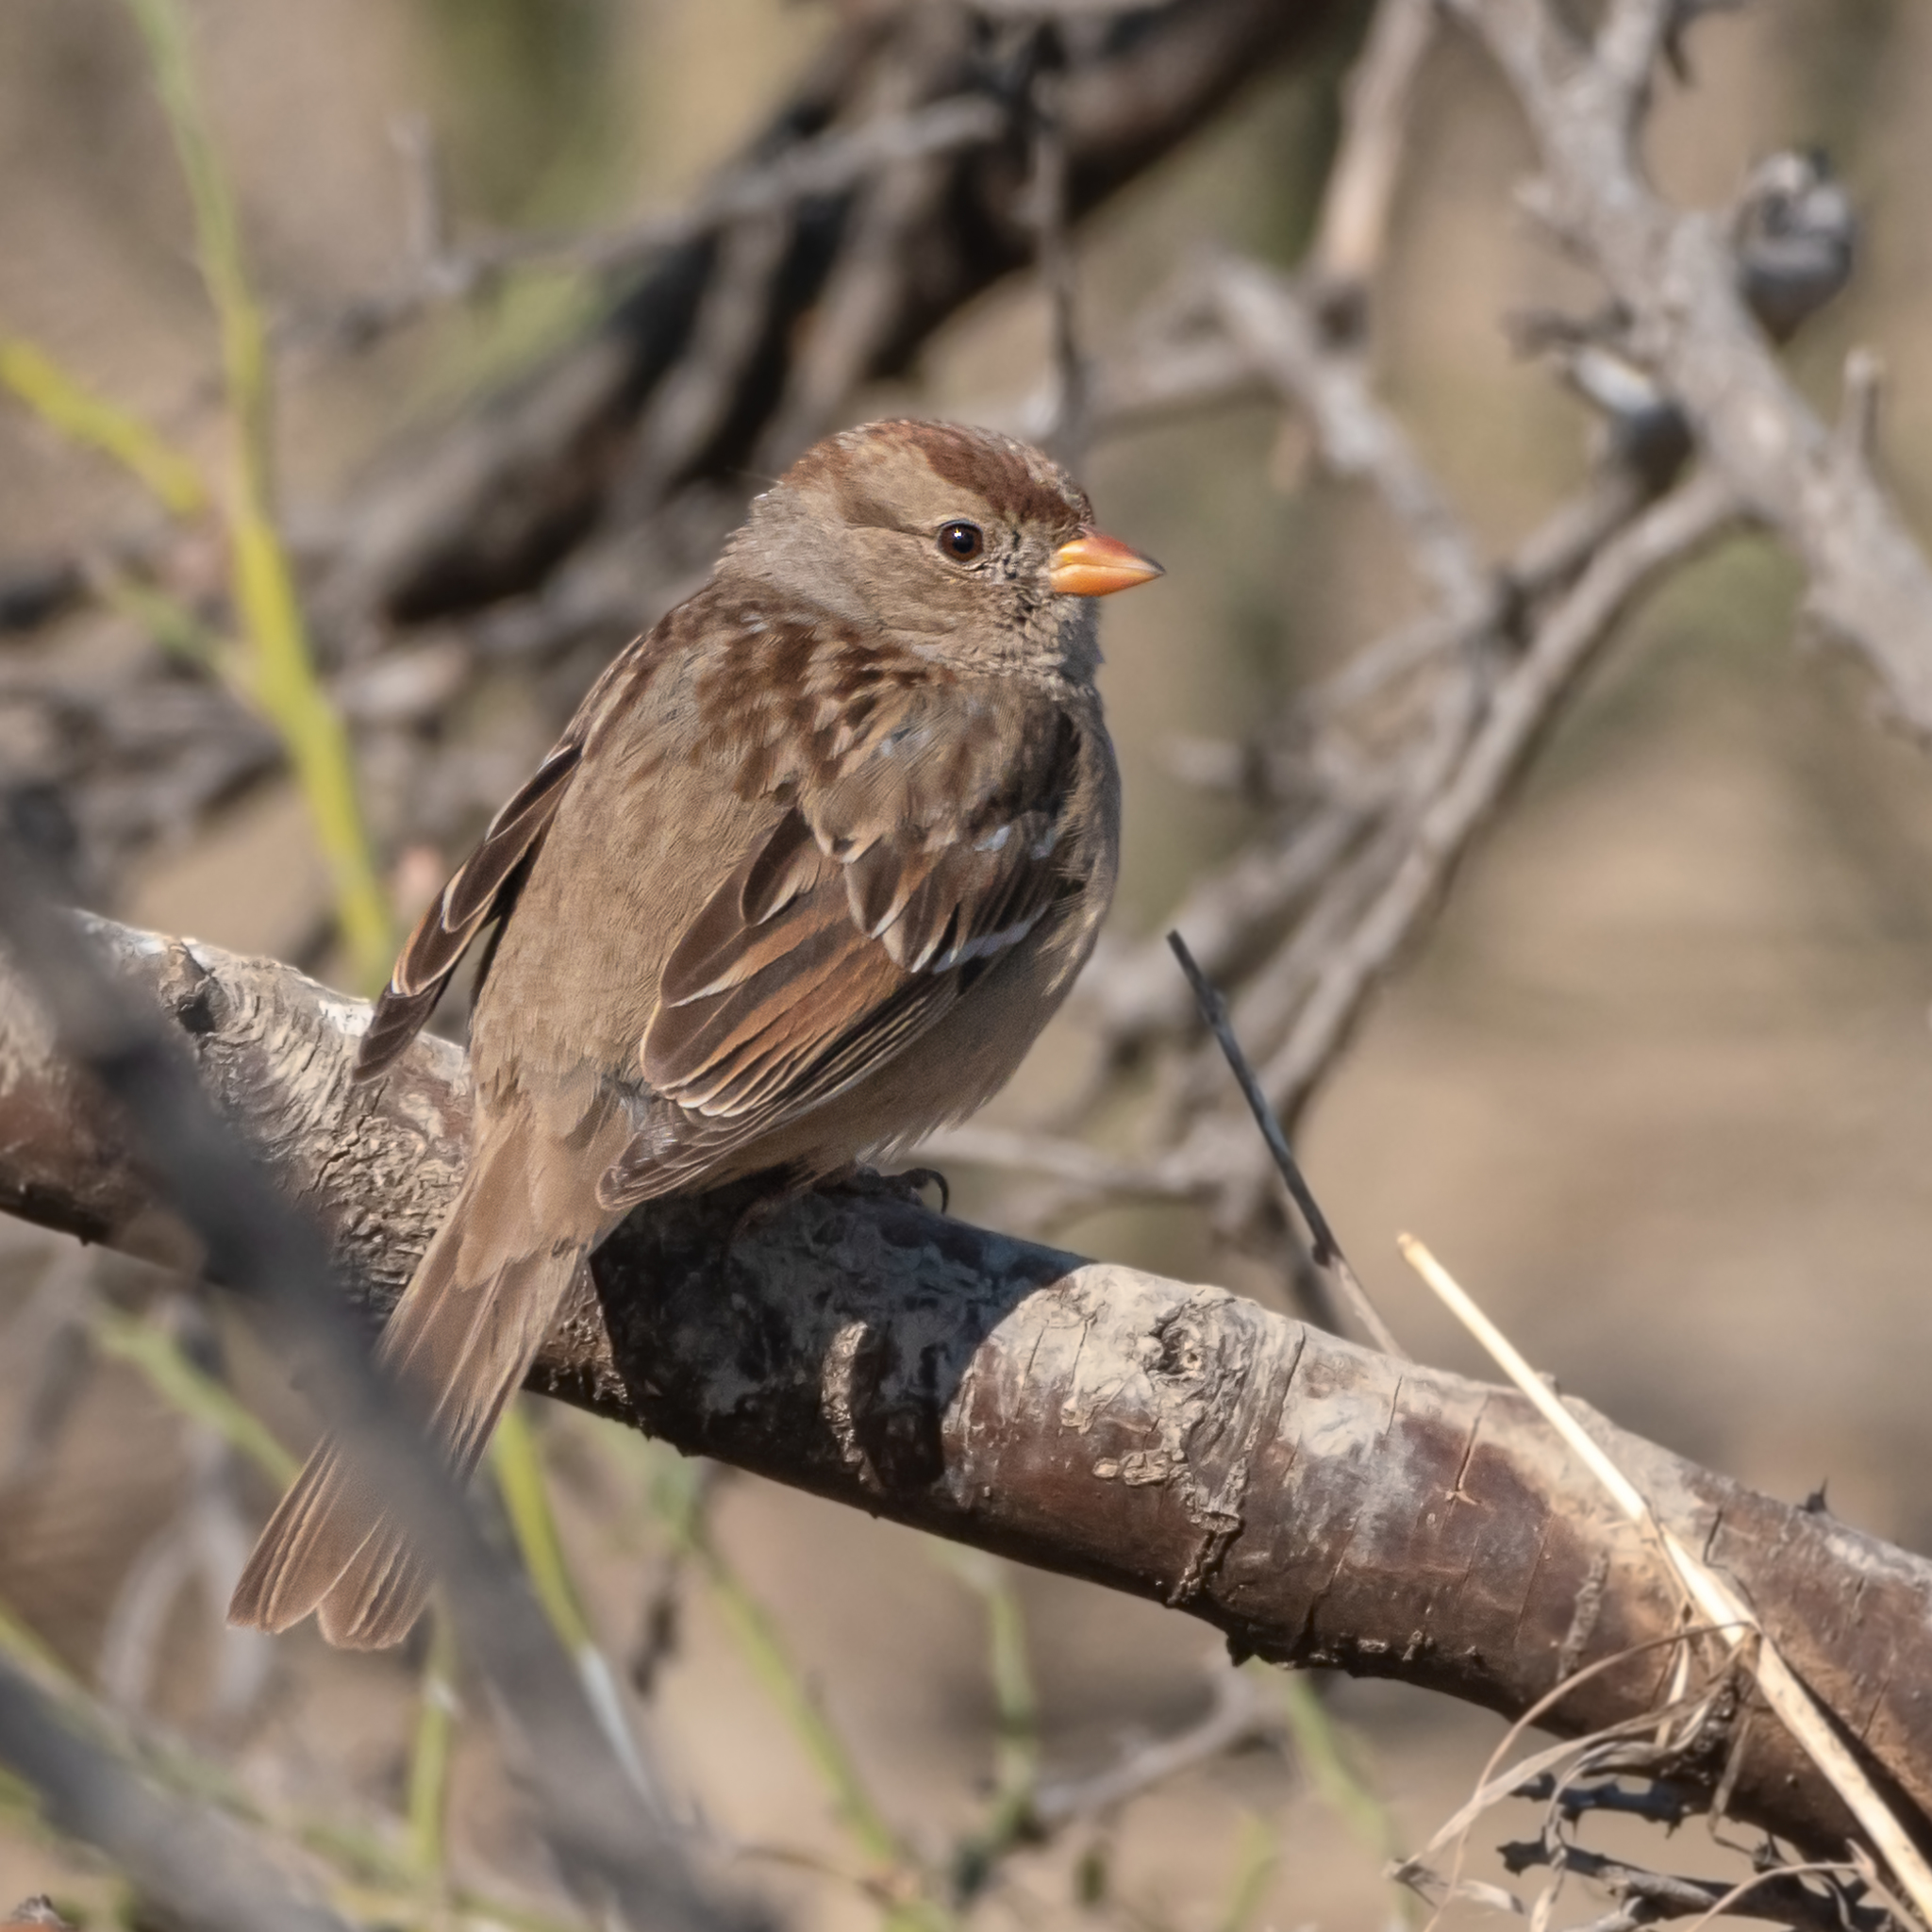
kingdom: Animalia
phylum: Chordata
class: Aves
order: Passeriformes
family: Passerellidae
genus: Zonotrichia
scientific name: Zonotrichia leucophrys
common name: White-crowned sparrow
